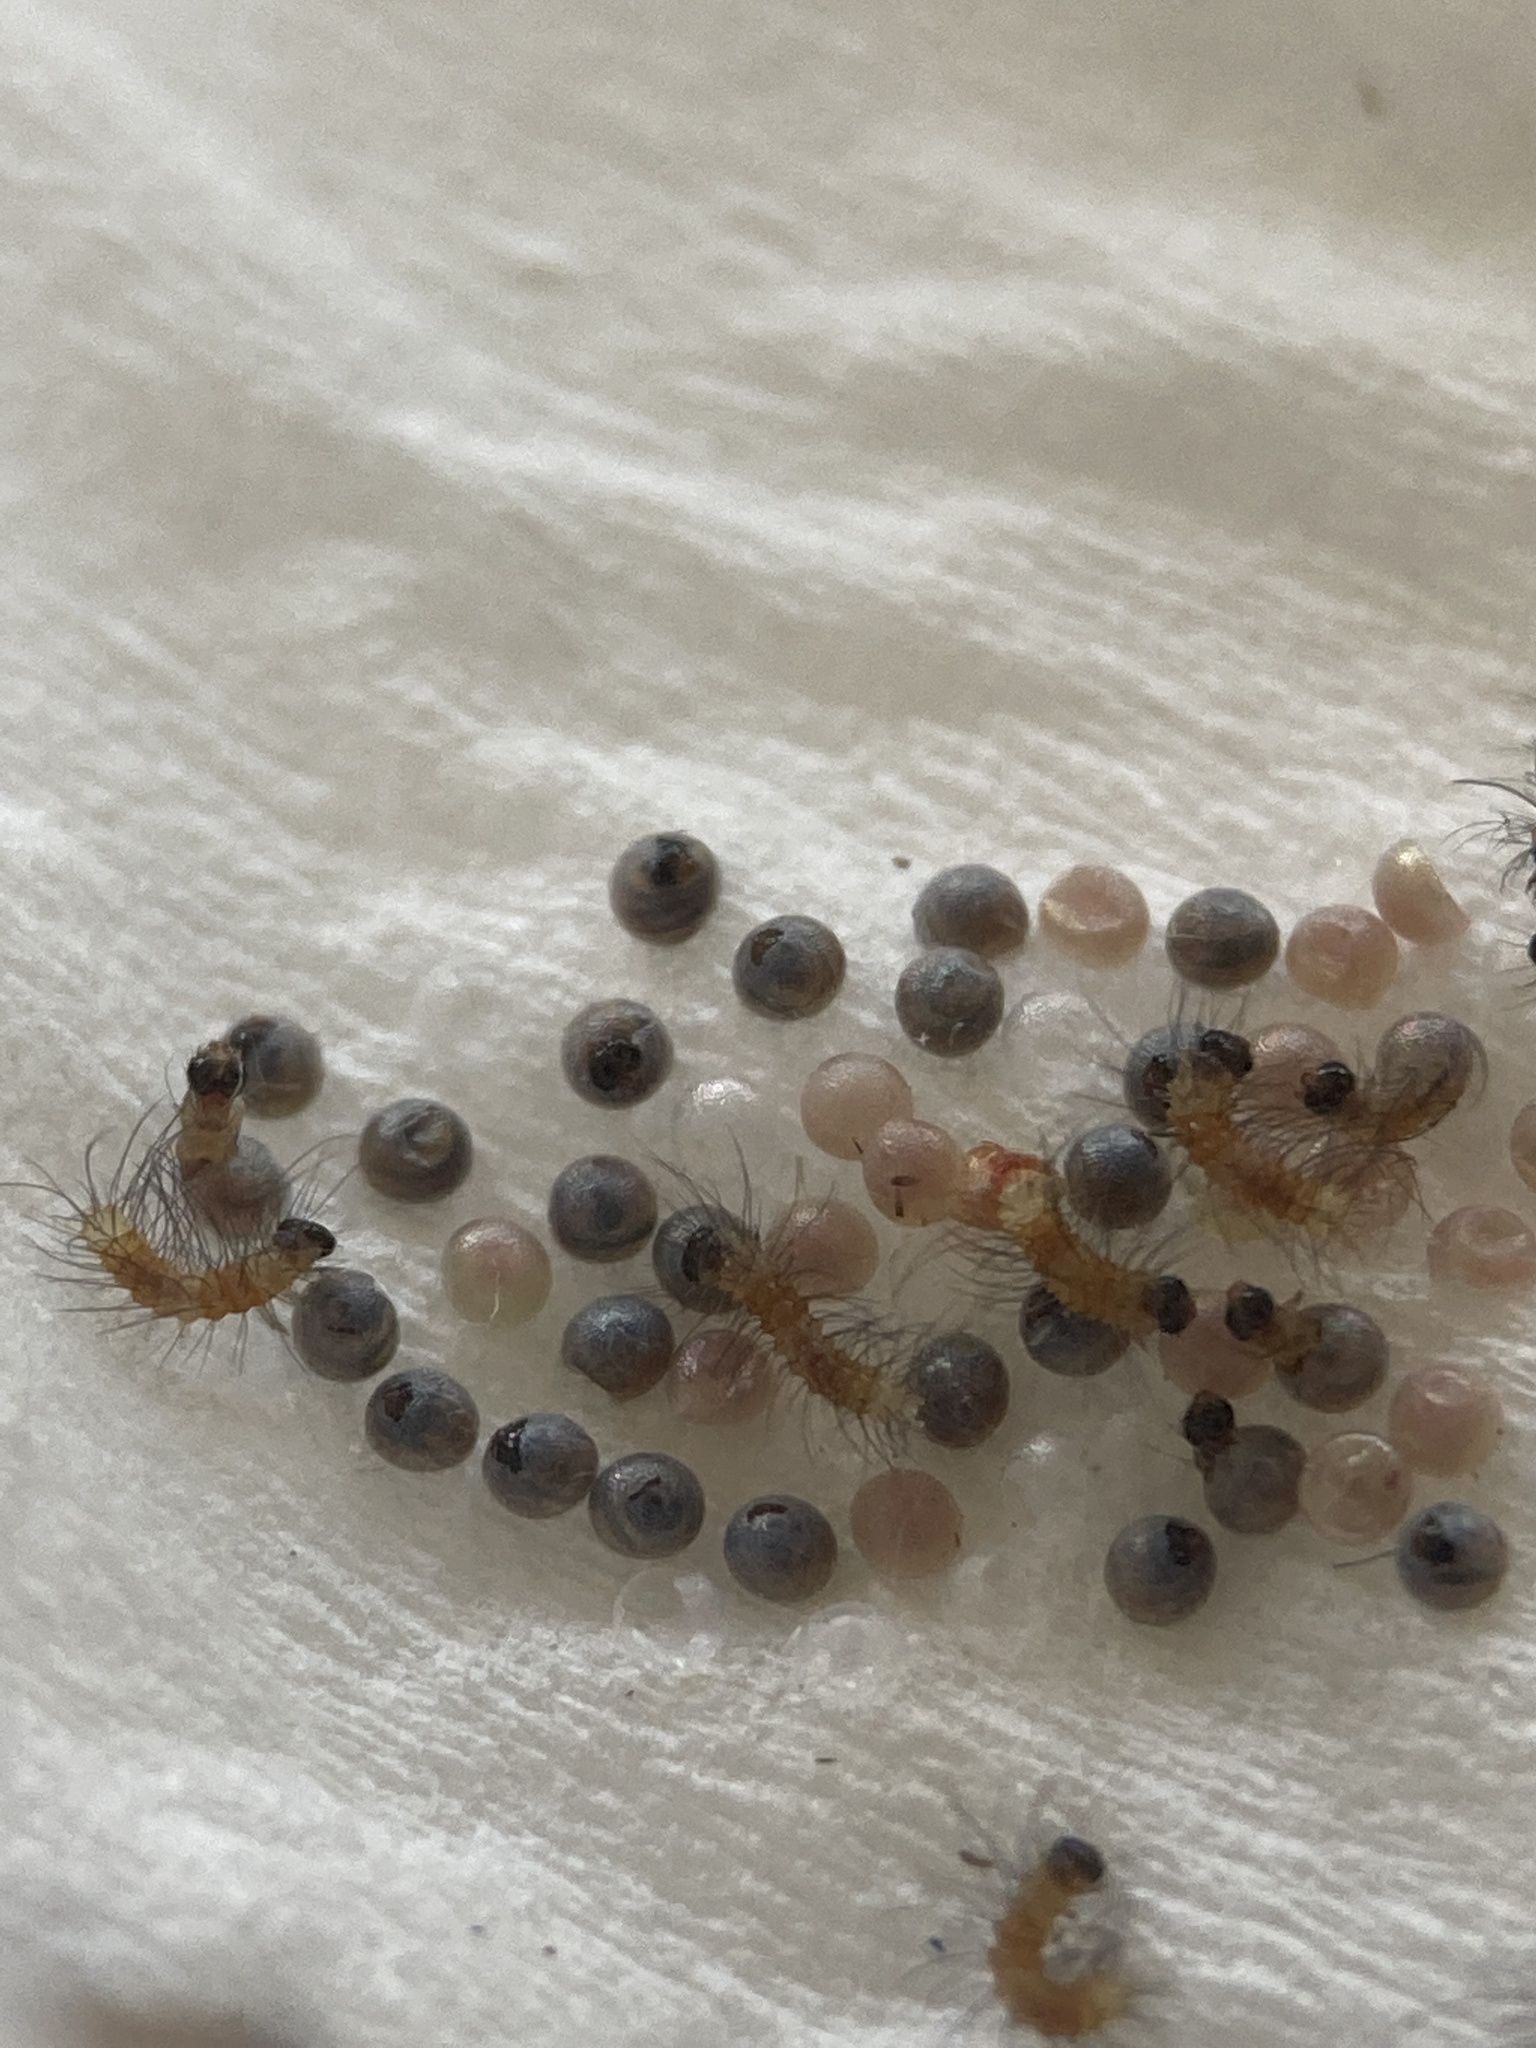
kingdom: Animalia
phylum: Arthropoda
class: Insecta
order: Lepidoptera
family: Erebidae
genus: Hypercompe
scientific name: Hypercompe scribonia
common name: Giant leopard moth
